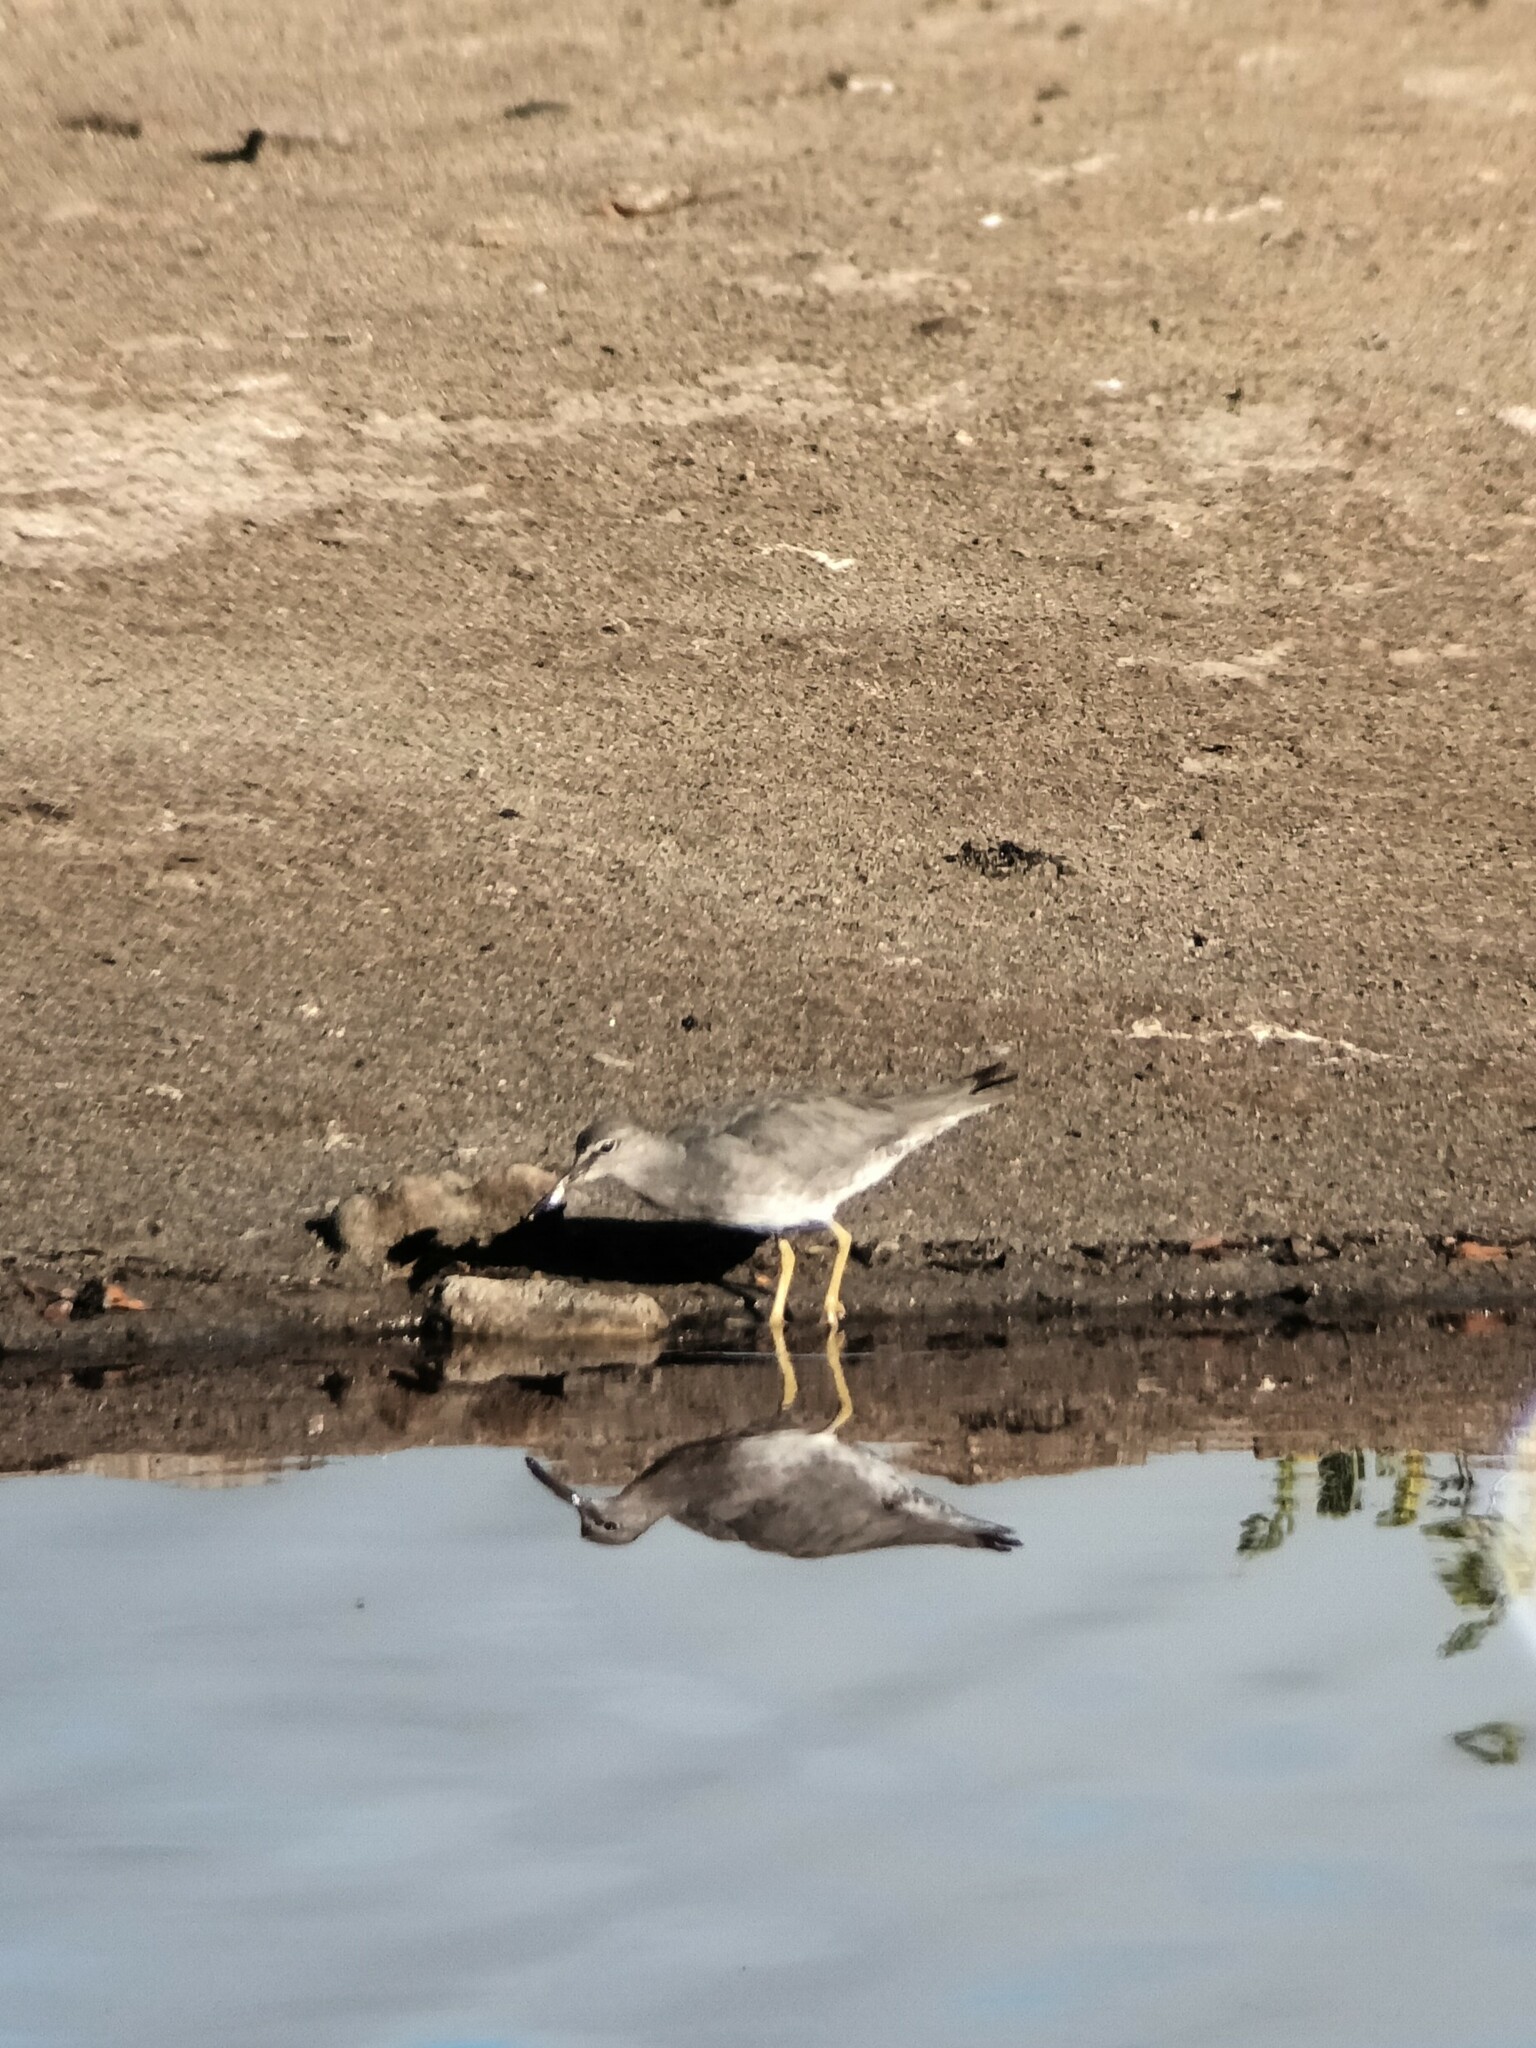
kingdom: Animalia
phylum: Chordata
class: Aves
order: Charadriiformes
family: Scolopacidae
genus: Tringa
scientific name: Tringa incana
